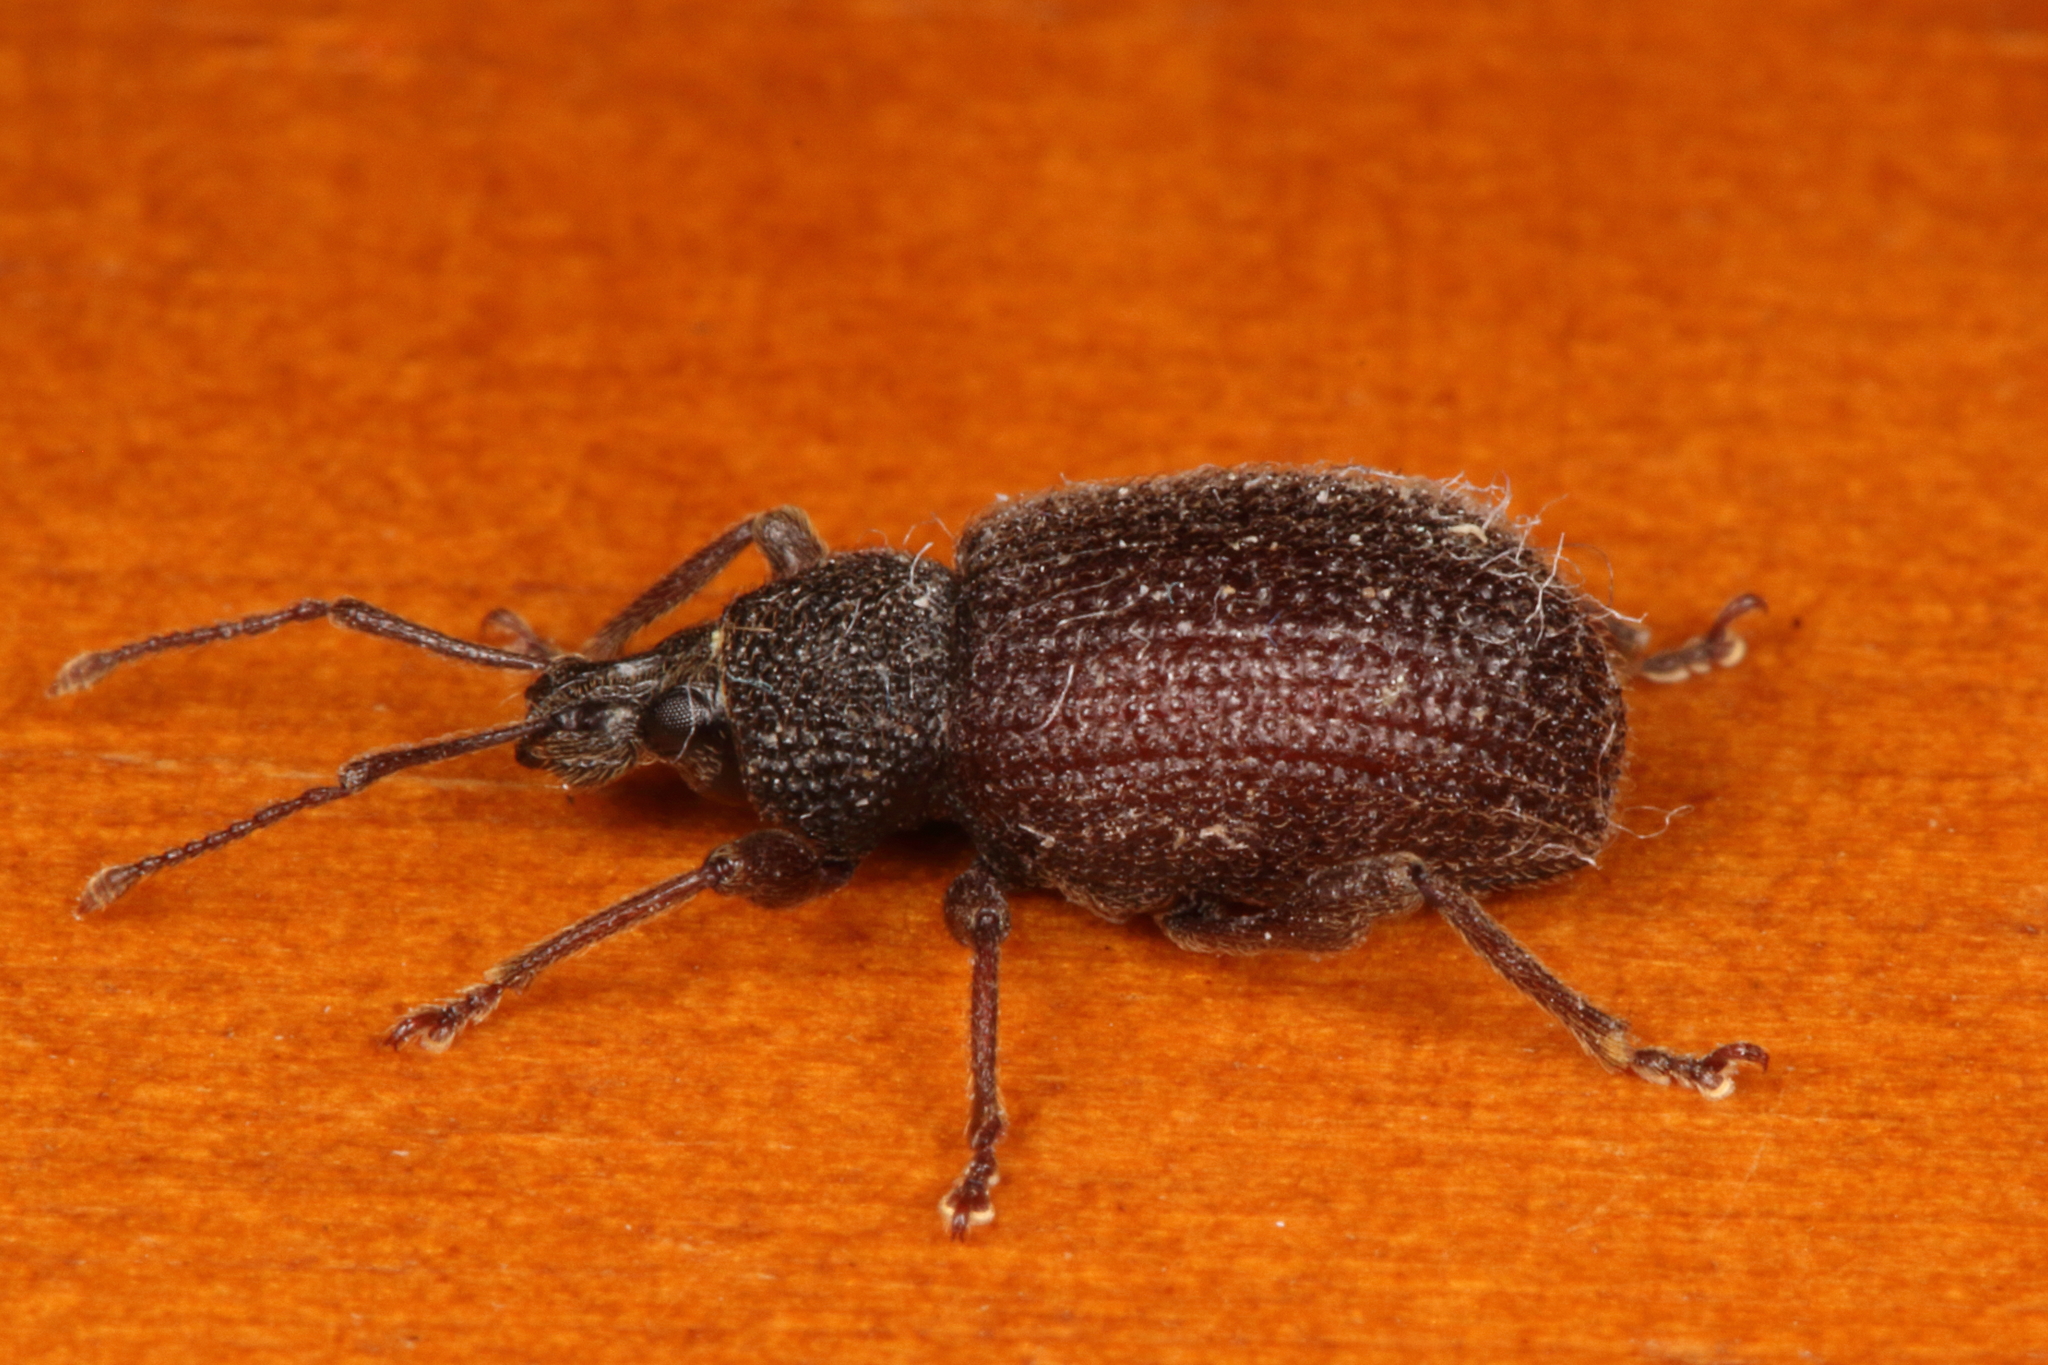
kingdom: Animalia
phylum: Arthropoda
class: Insecta
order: Coleoptera
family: Curculionidae
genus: Otiorhynchus
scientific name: Otiorhynchus rugosostriatus
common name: Weevil
